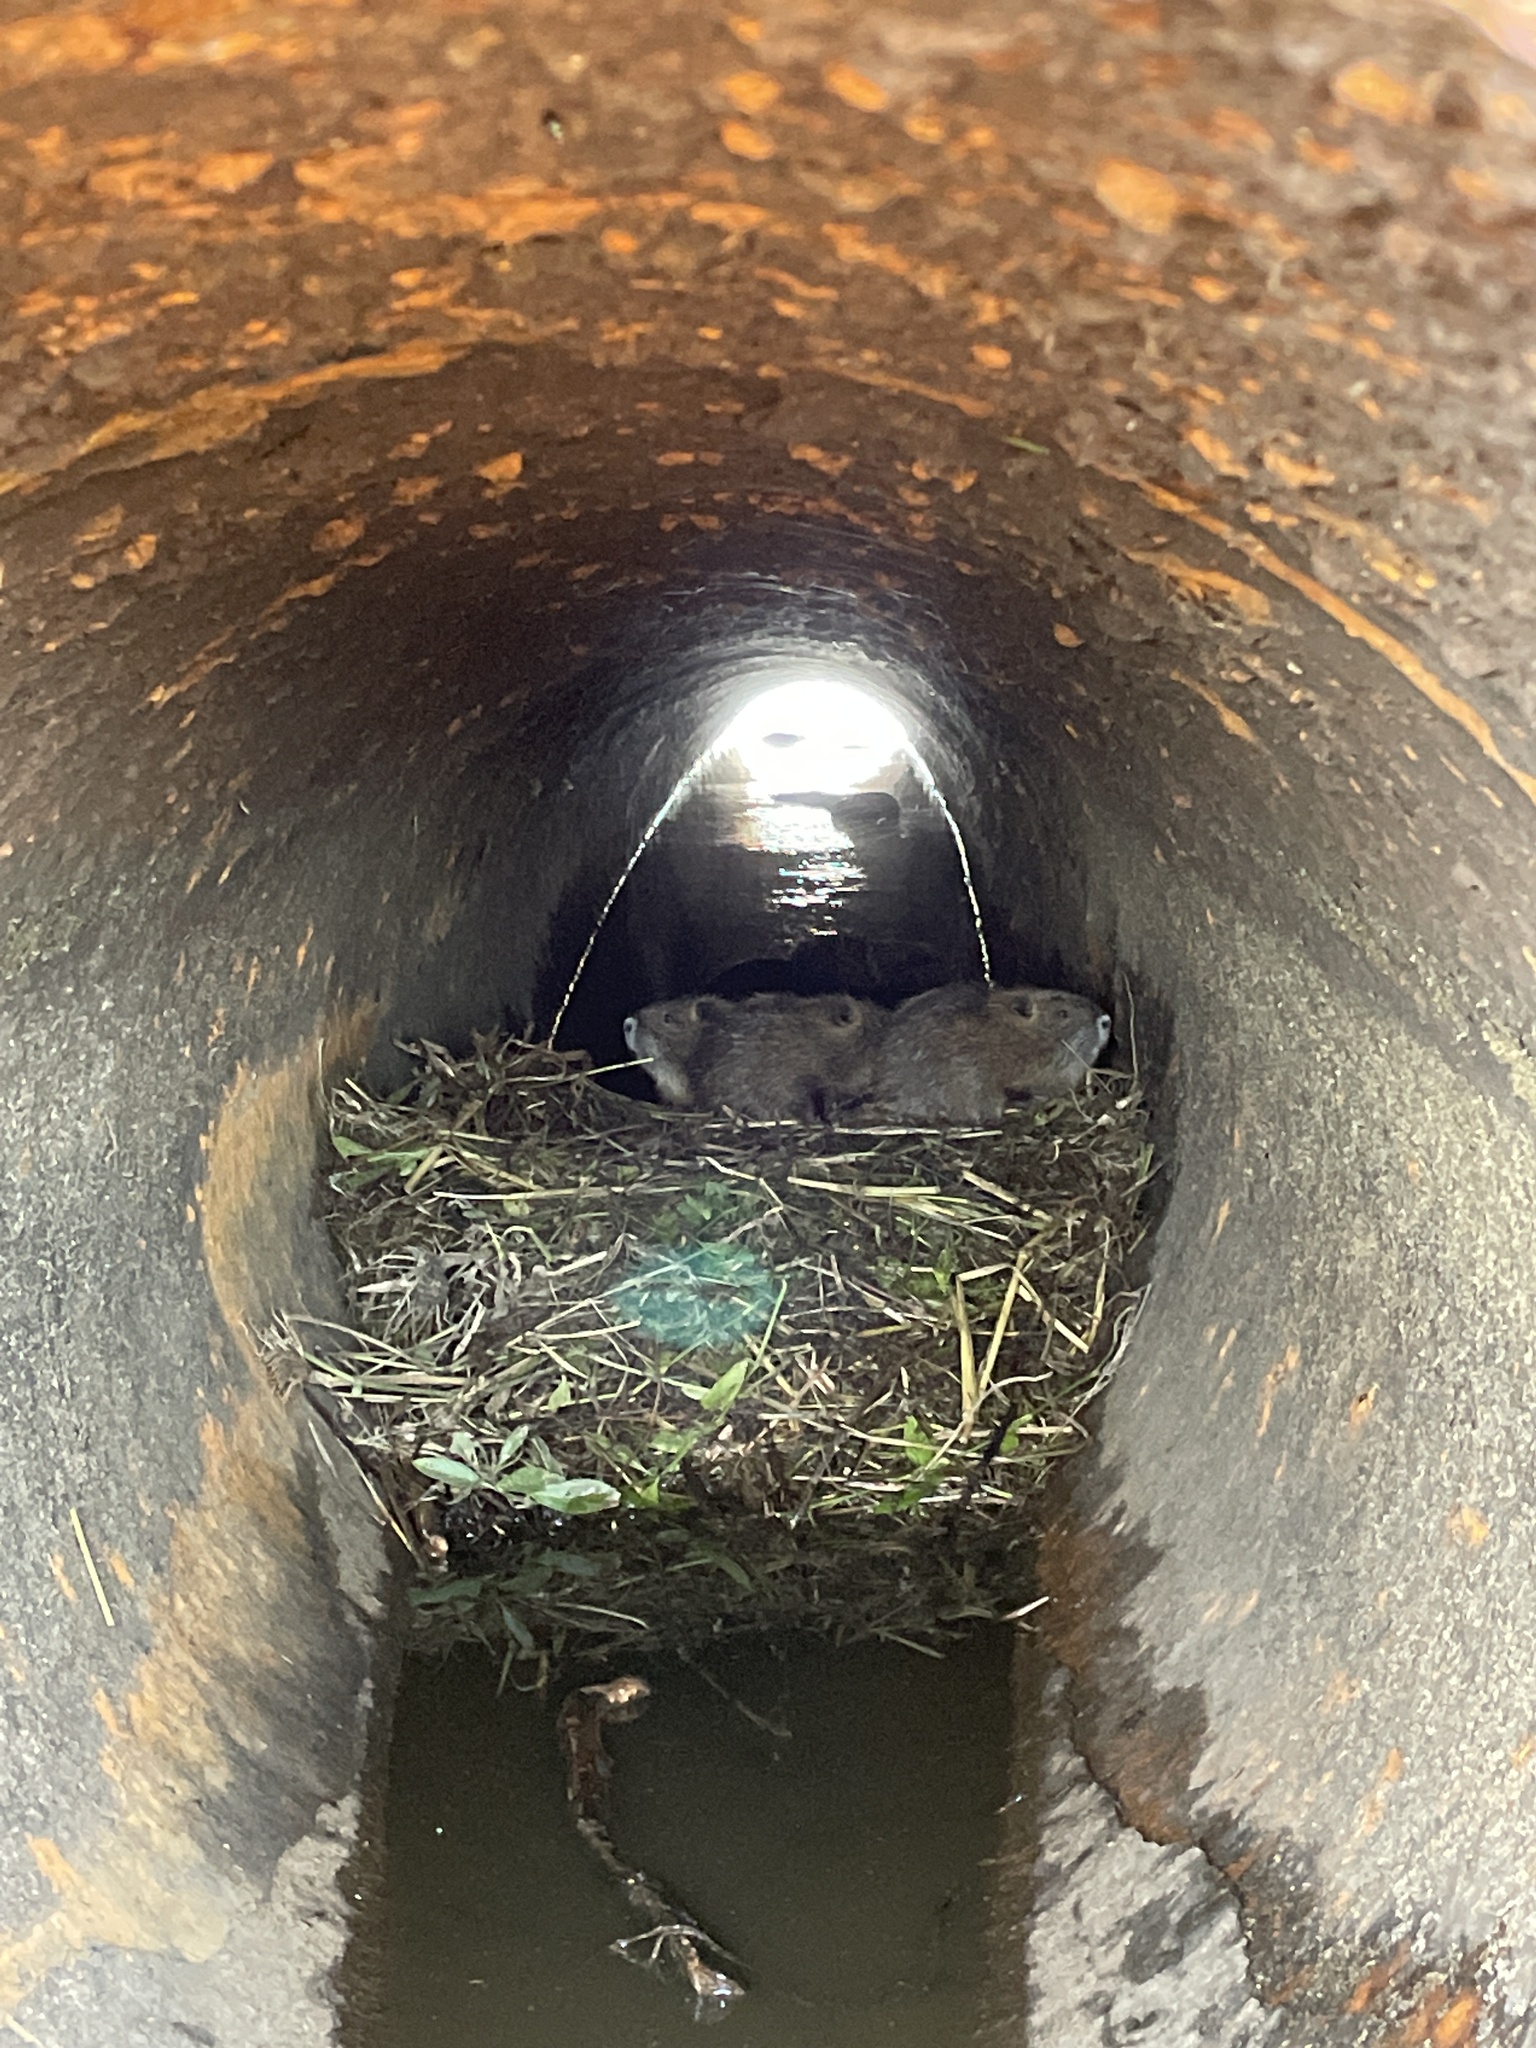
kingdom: Animalia
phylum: Chordata
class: Mammalia
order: Rodentia
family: Myocastoridae
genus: Myocastor
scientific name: Myocastor coypus
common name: Coypu
